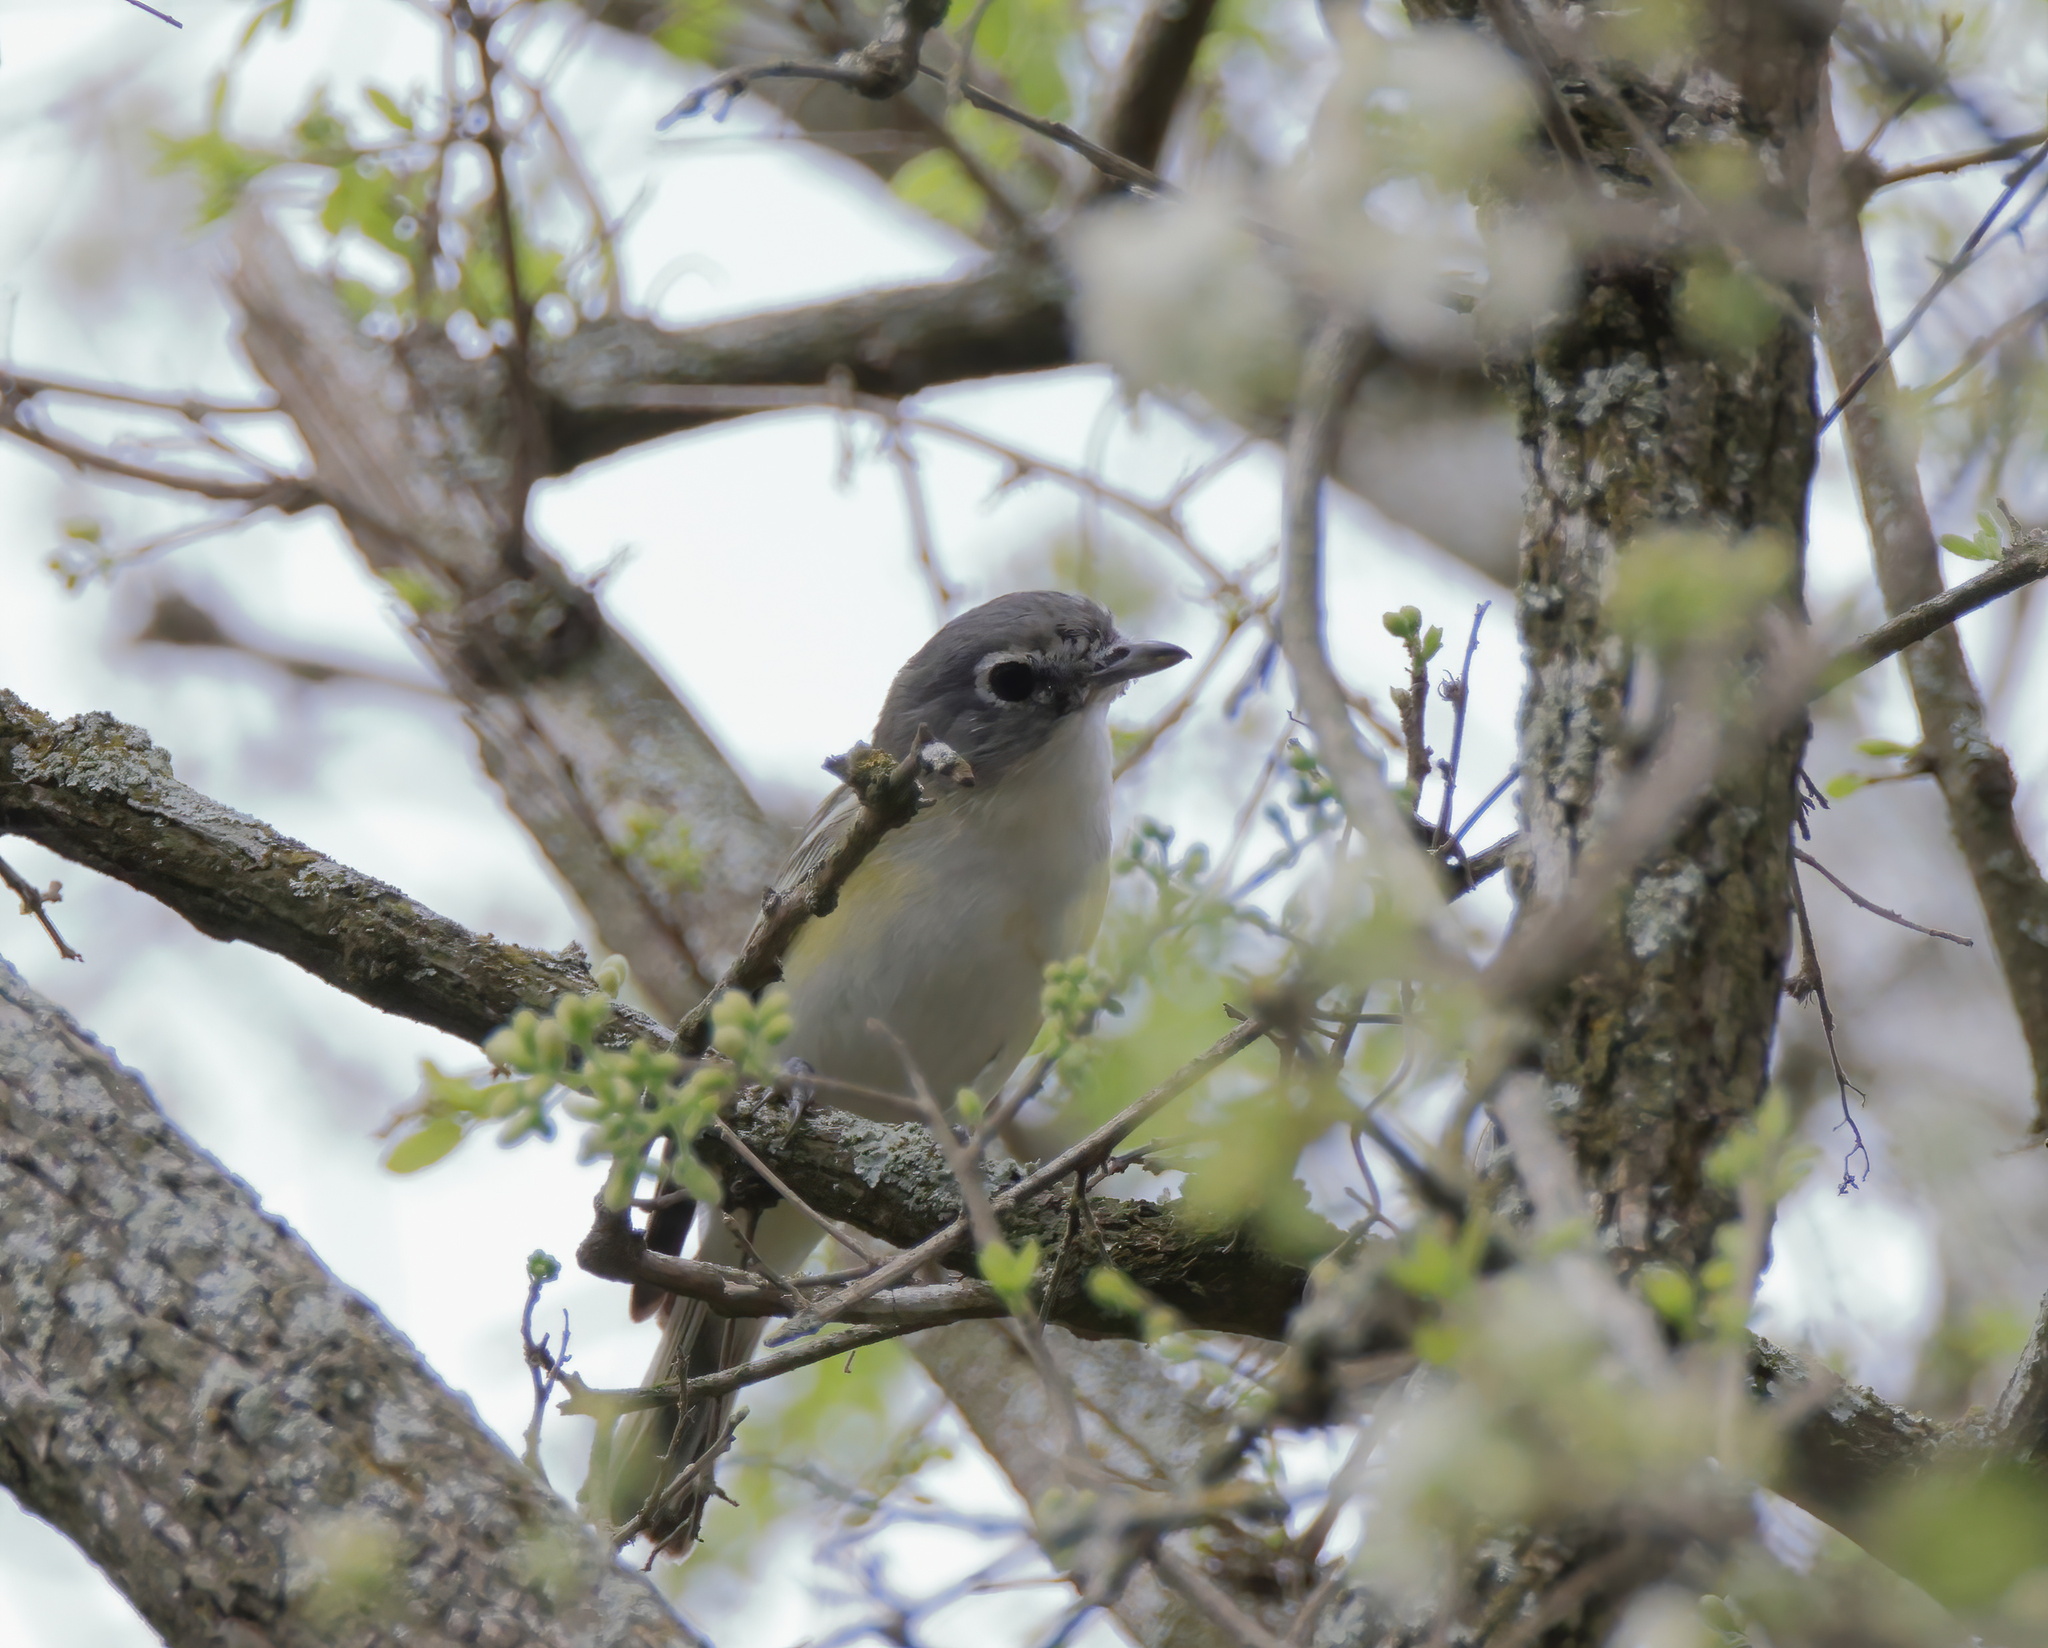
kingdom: Animalia
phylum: Chordata
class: Aves
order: Passeriformes
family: Vireonidae
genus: Vireo
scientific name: Vireo solitarius
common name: Blue-headed vireo
